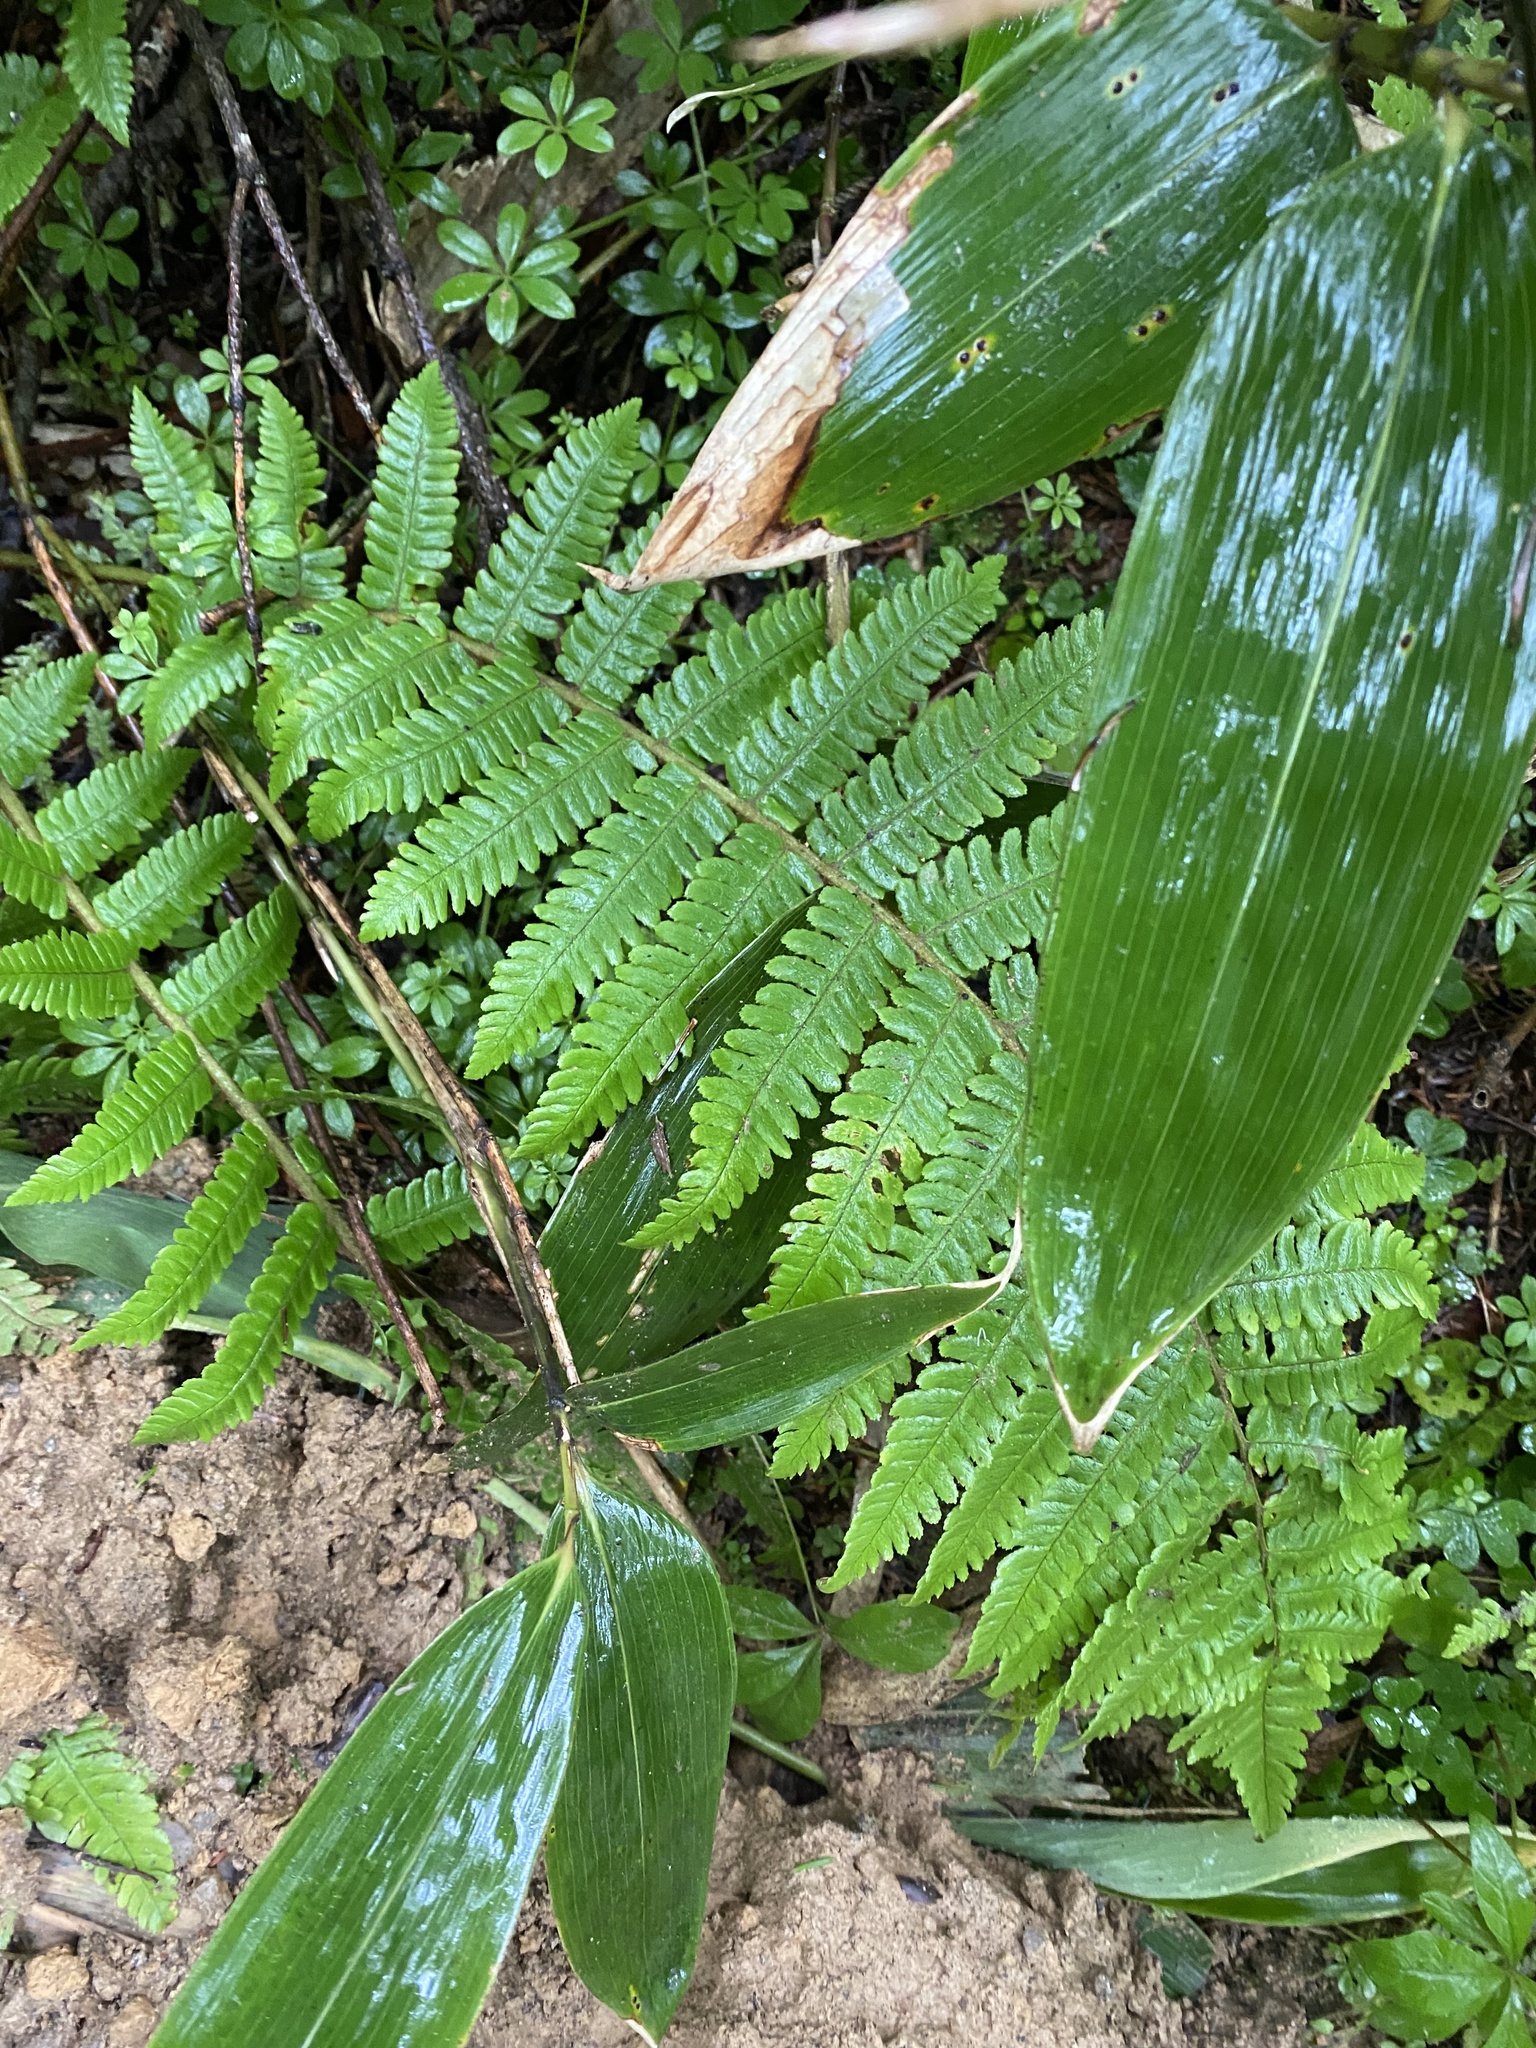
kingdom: Plantae
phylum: Tracheophyta
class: Polypodiopsida
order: Polypodiales
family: Dryopteridaceae
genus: Dryopteris
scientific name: Dryopteris crassirhizoma
